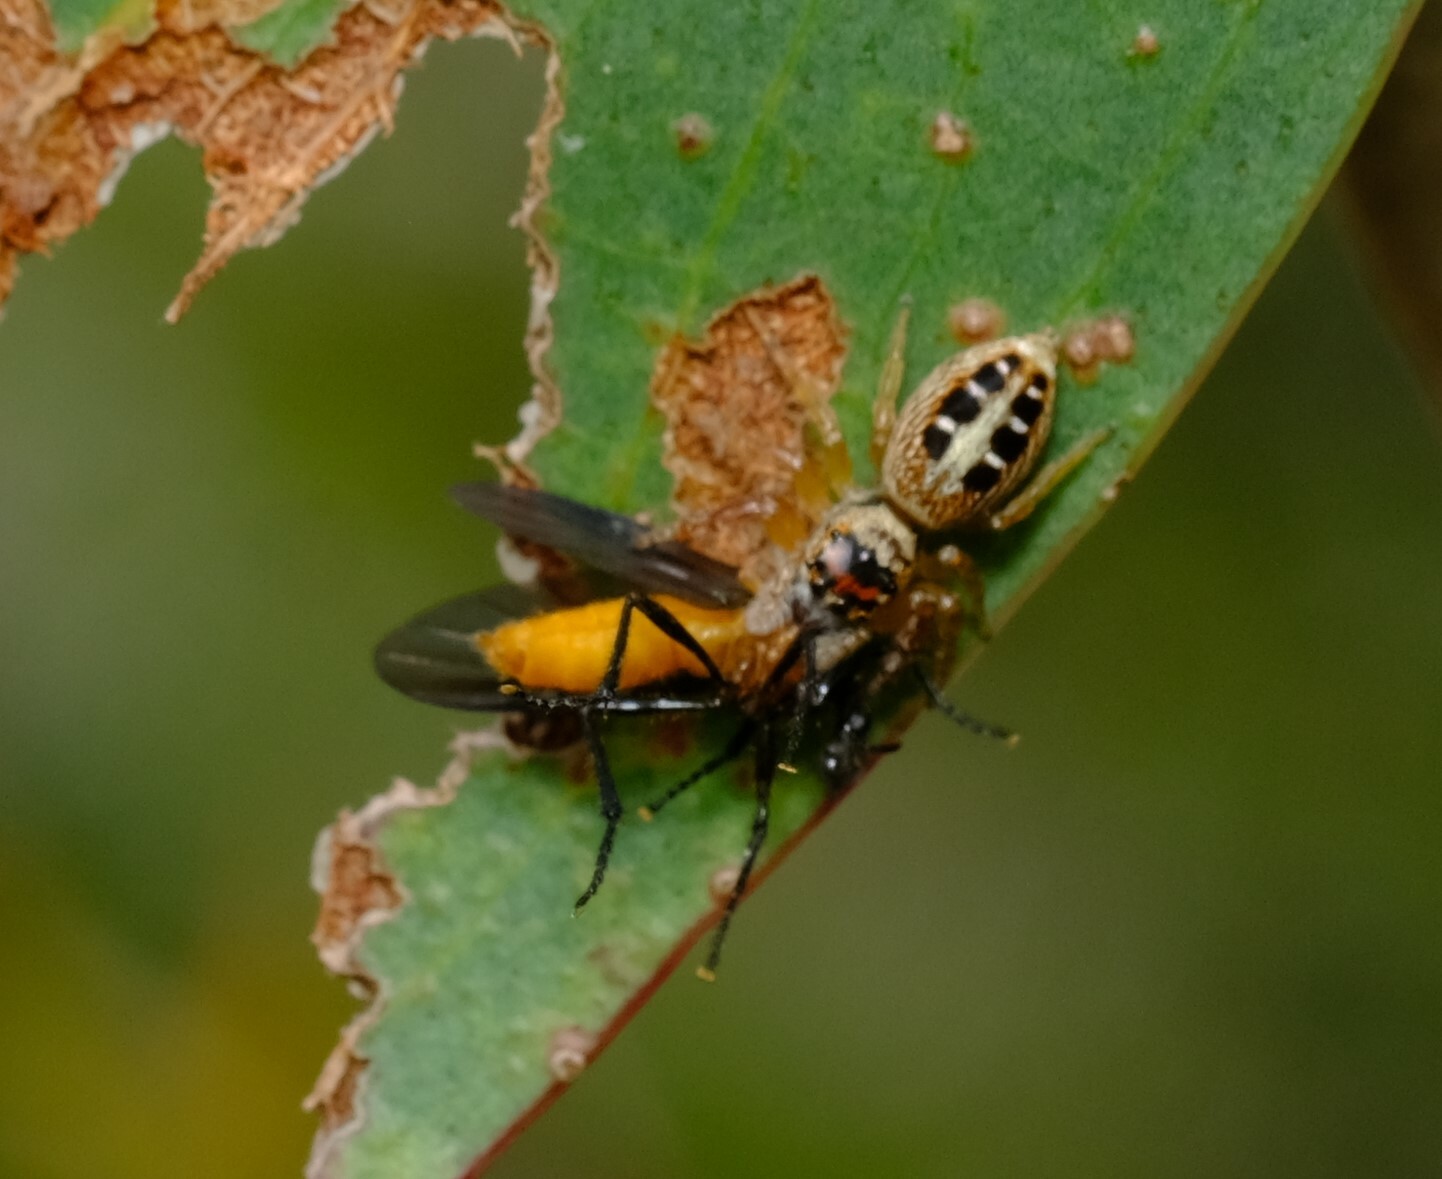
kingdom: Animalia
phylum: Arthropoda
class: Arachnida
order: Araneae
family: Salticidae
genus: Opisthoncus
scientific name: Opisthoncus sexmaculatus
